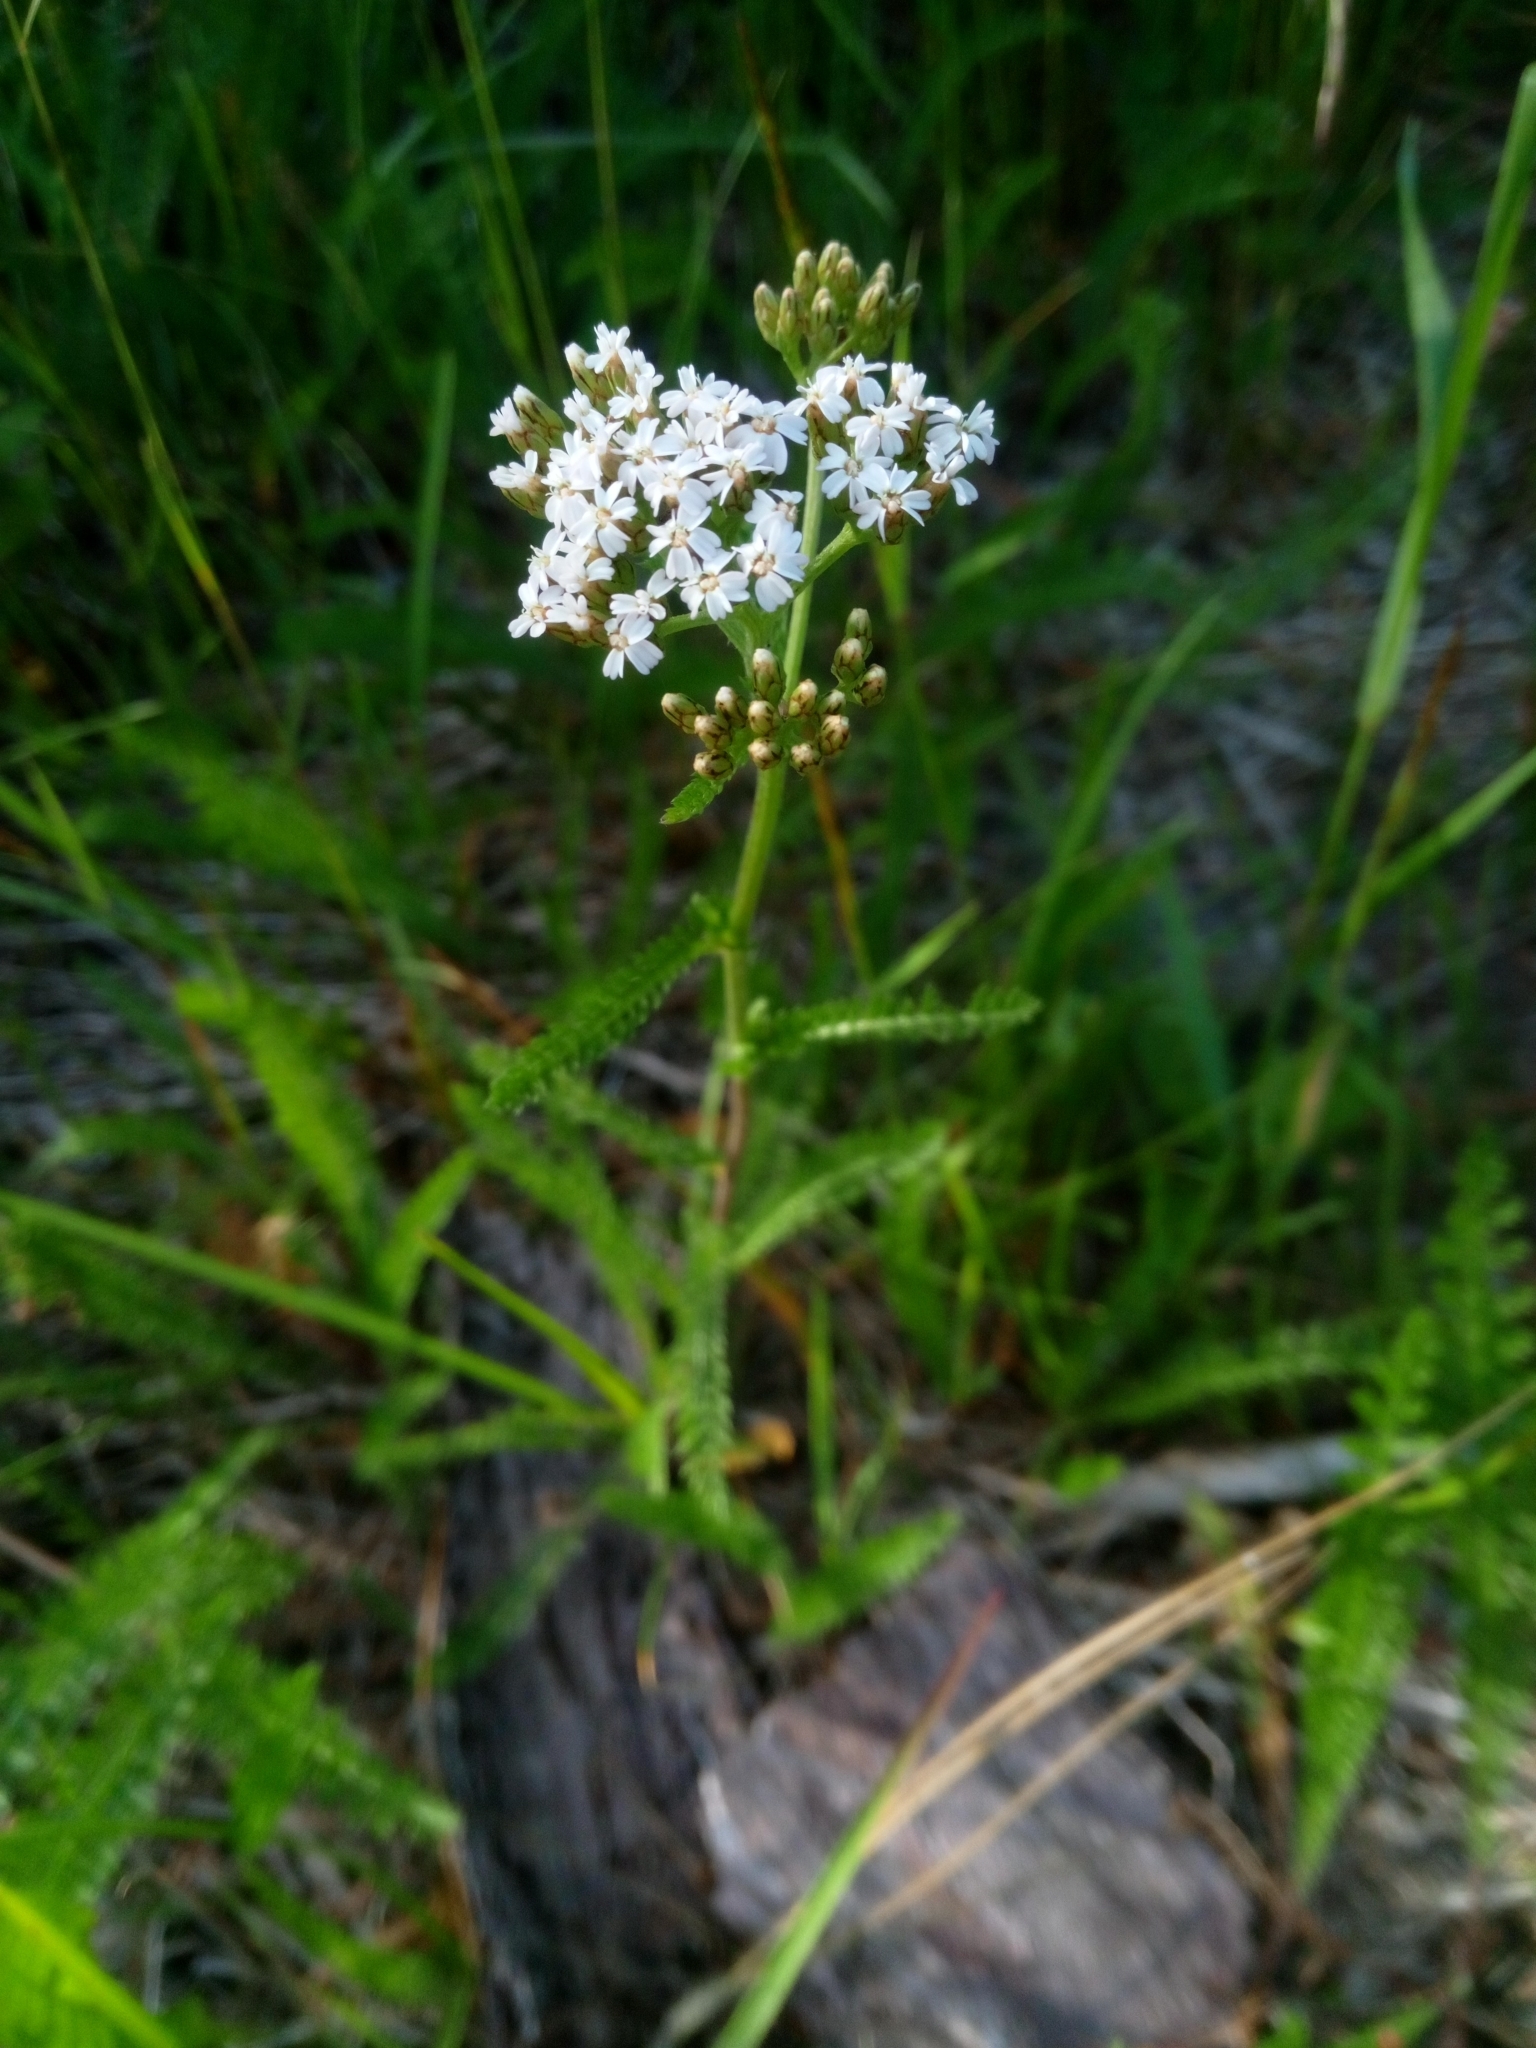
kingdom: Plantae
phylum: Tracheophyta
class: Magnoliopsida
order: Asterales
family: Asteraceae
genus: Achillea
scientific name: Achillea millefolium
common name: Yarrow
